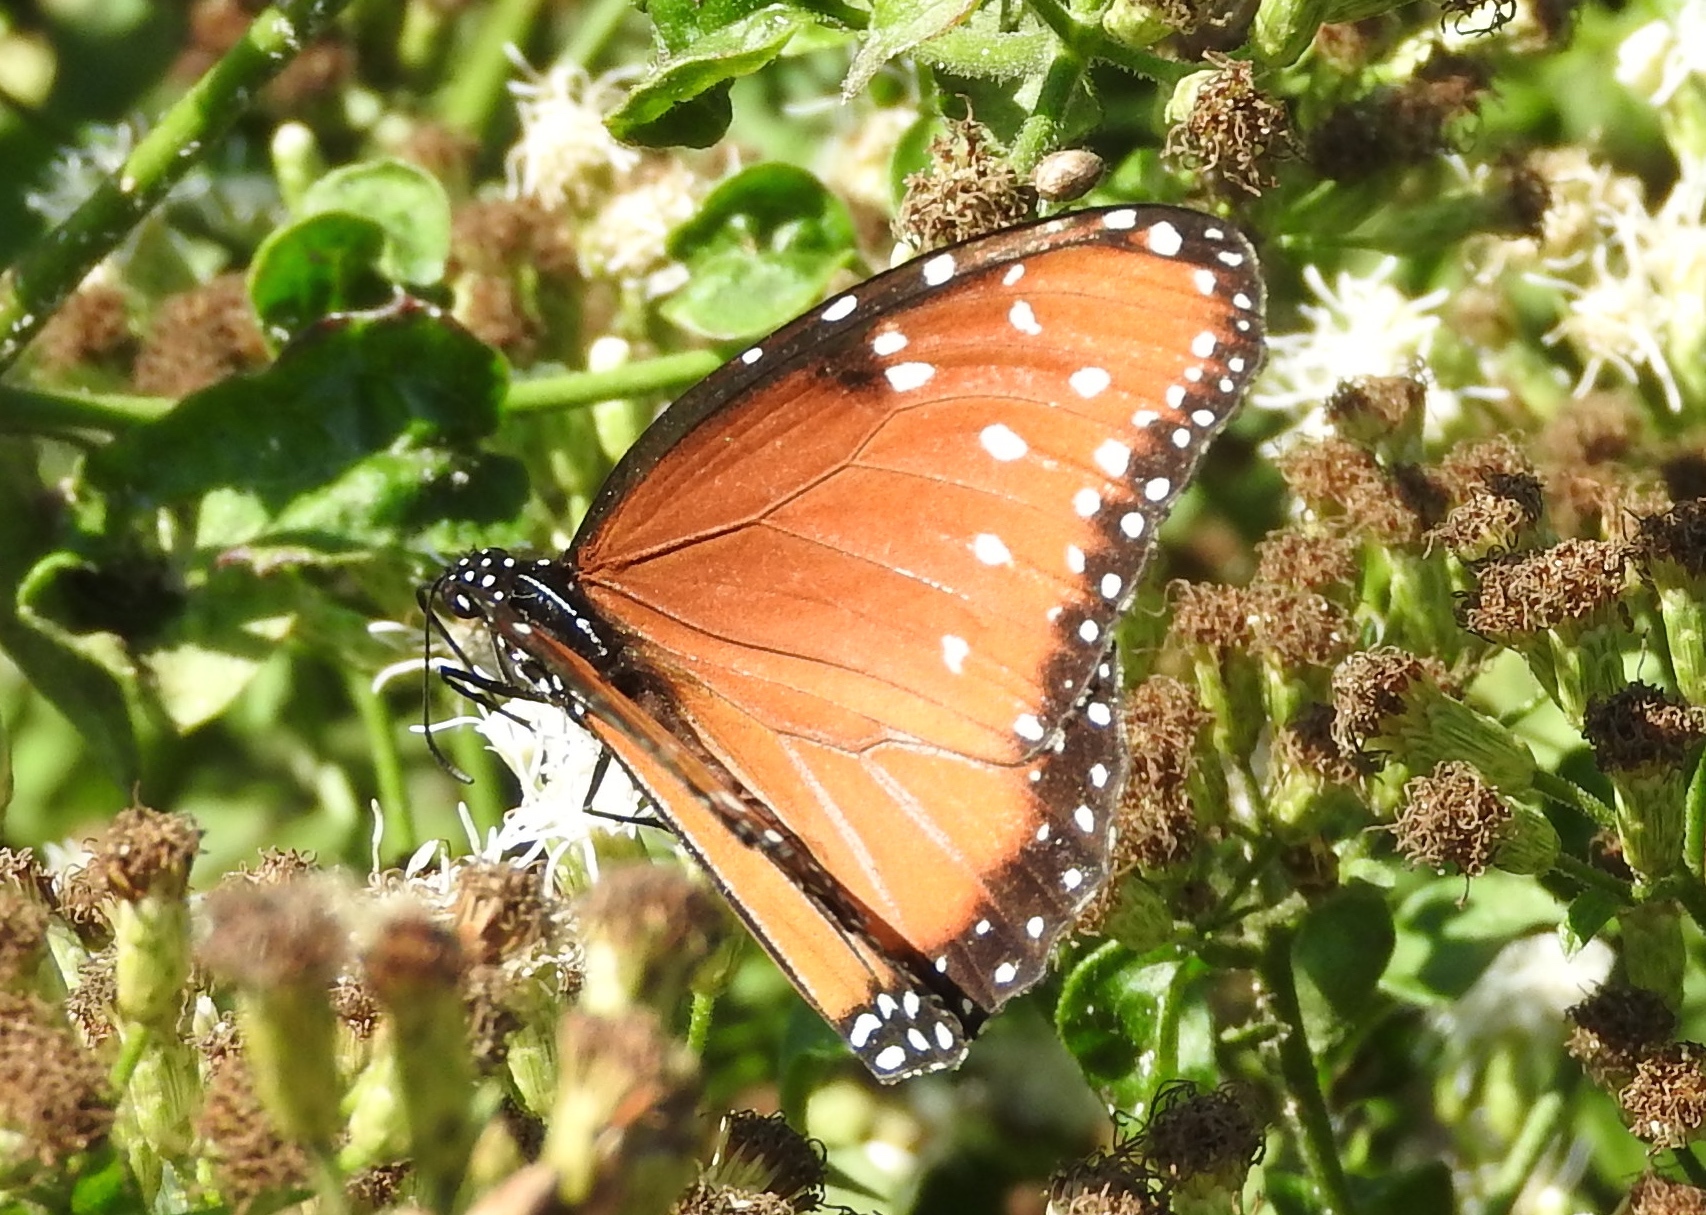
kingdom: Animalia
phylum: Arthropoda
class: Insecta
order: Lepidoptera
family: Nymphalidae
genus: Danaus
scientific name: Danaus gilippus
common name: Queen
